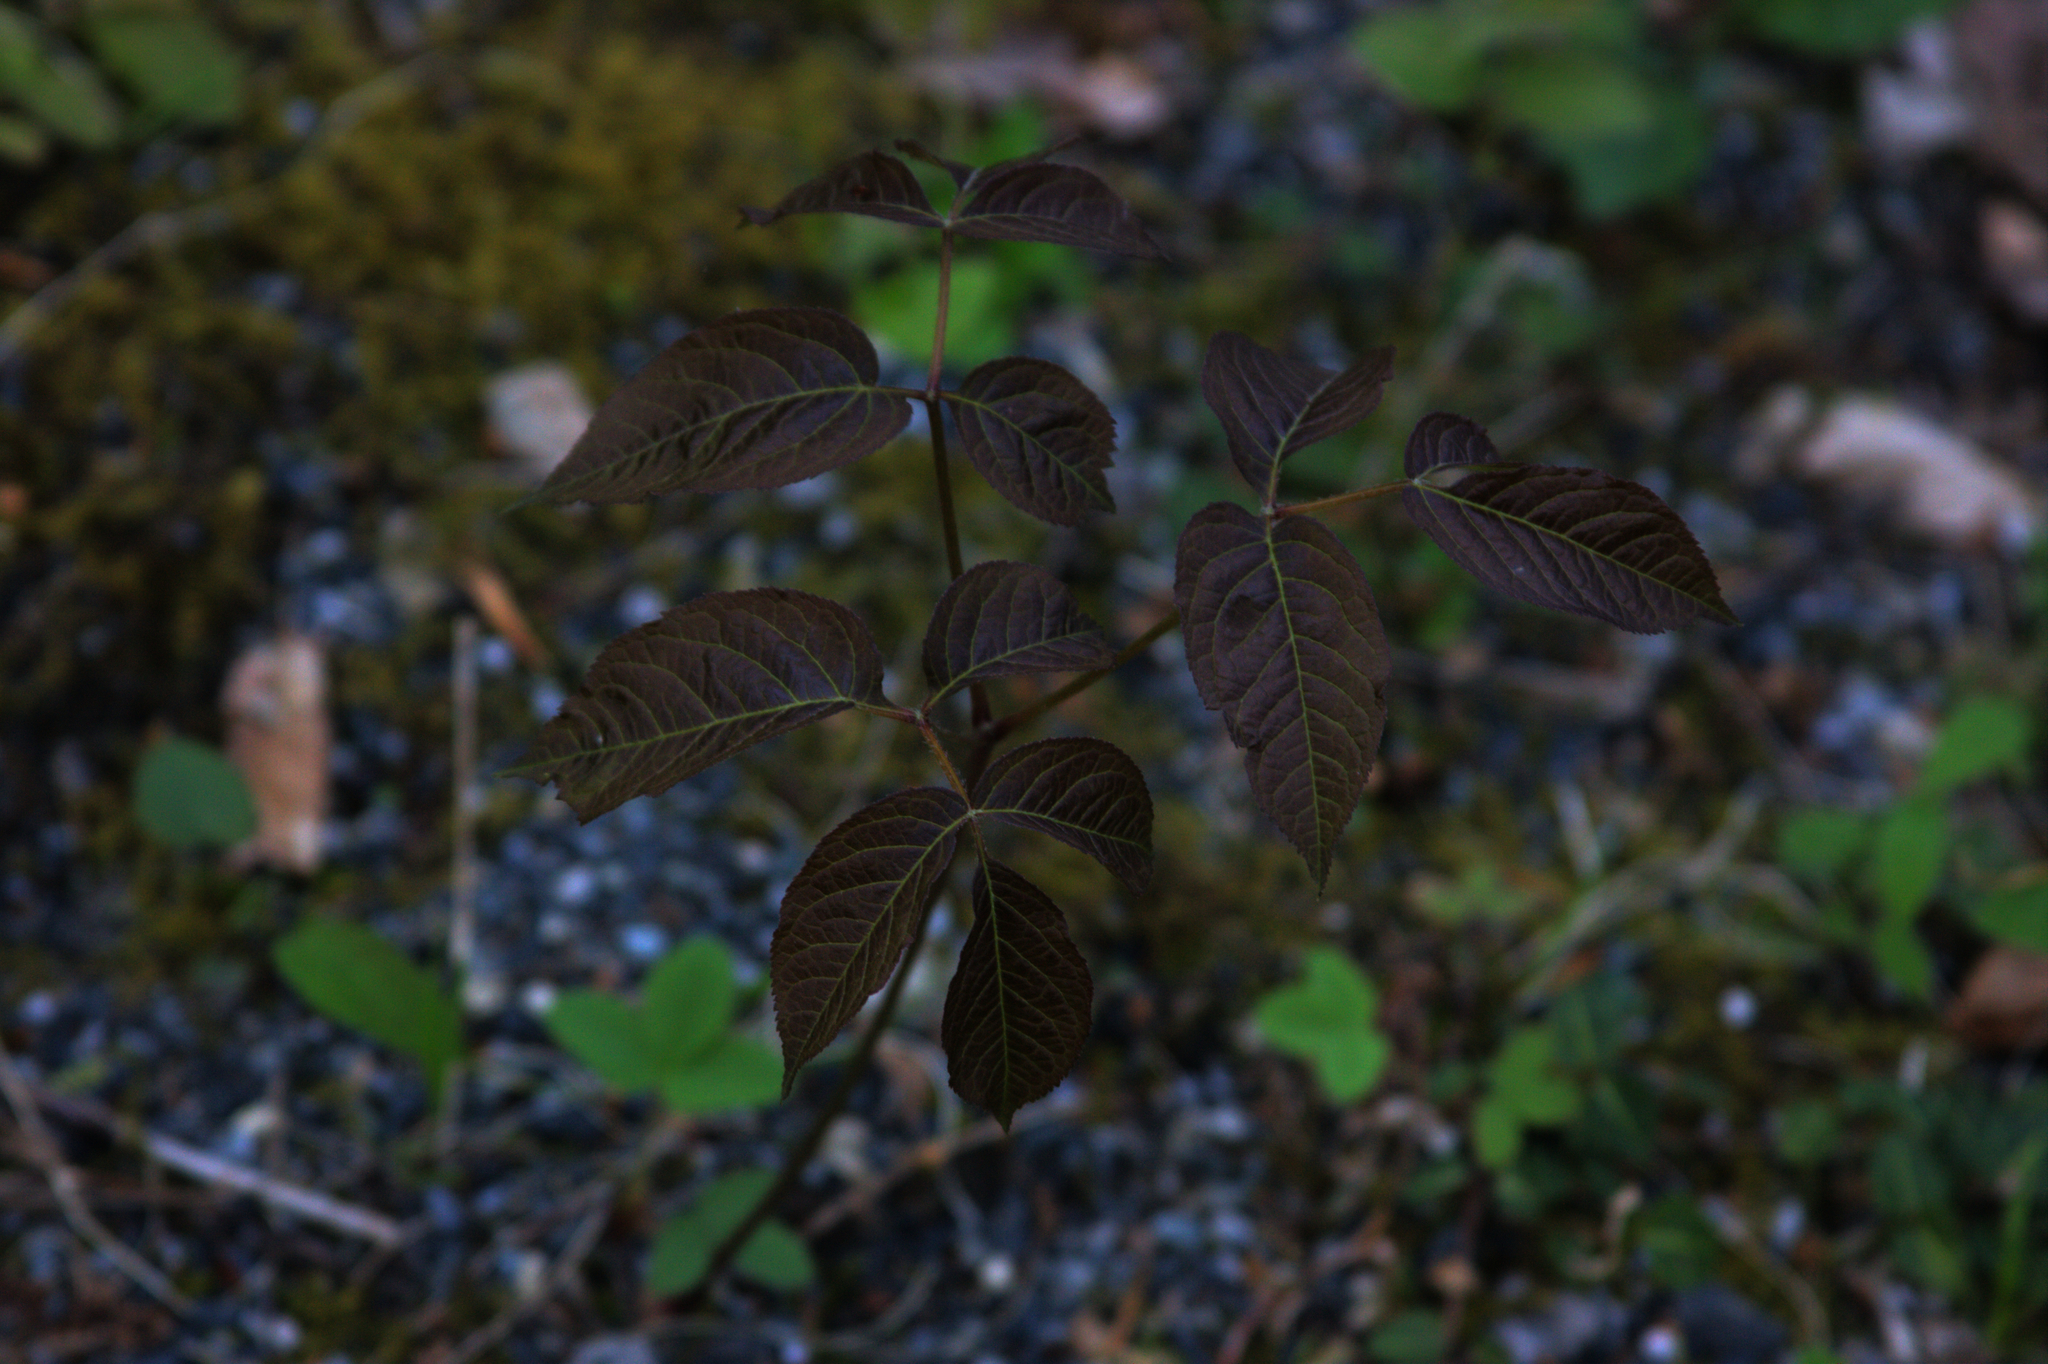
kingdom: Plantae
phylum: Tracheophyta
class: Magnoliopsida
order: Apiales
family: Araliaceae
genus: Aralia
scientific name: Aralia nudicaulis
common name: Wild sarsaparilla
